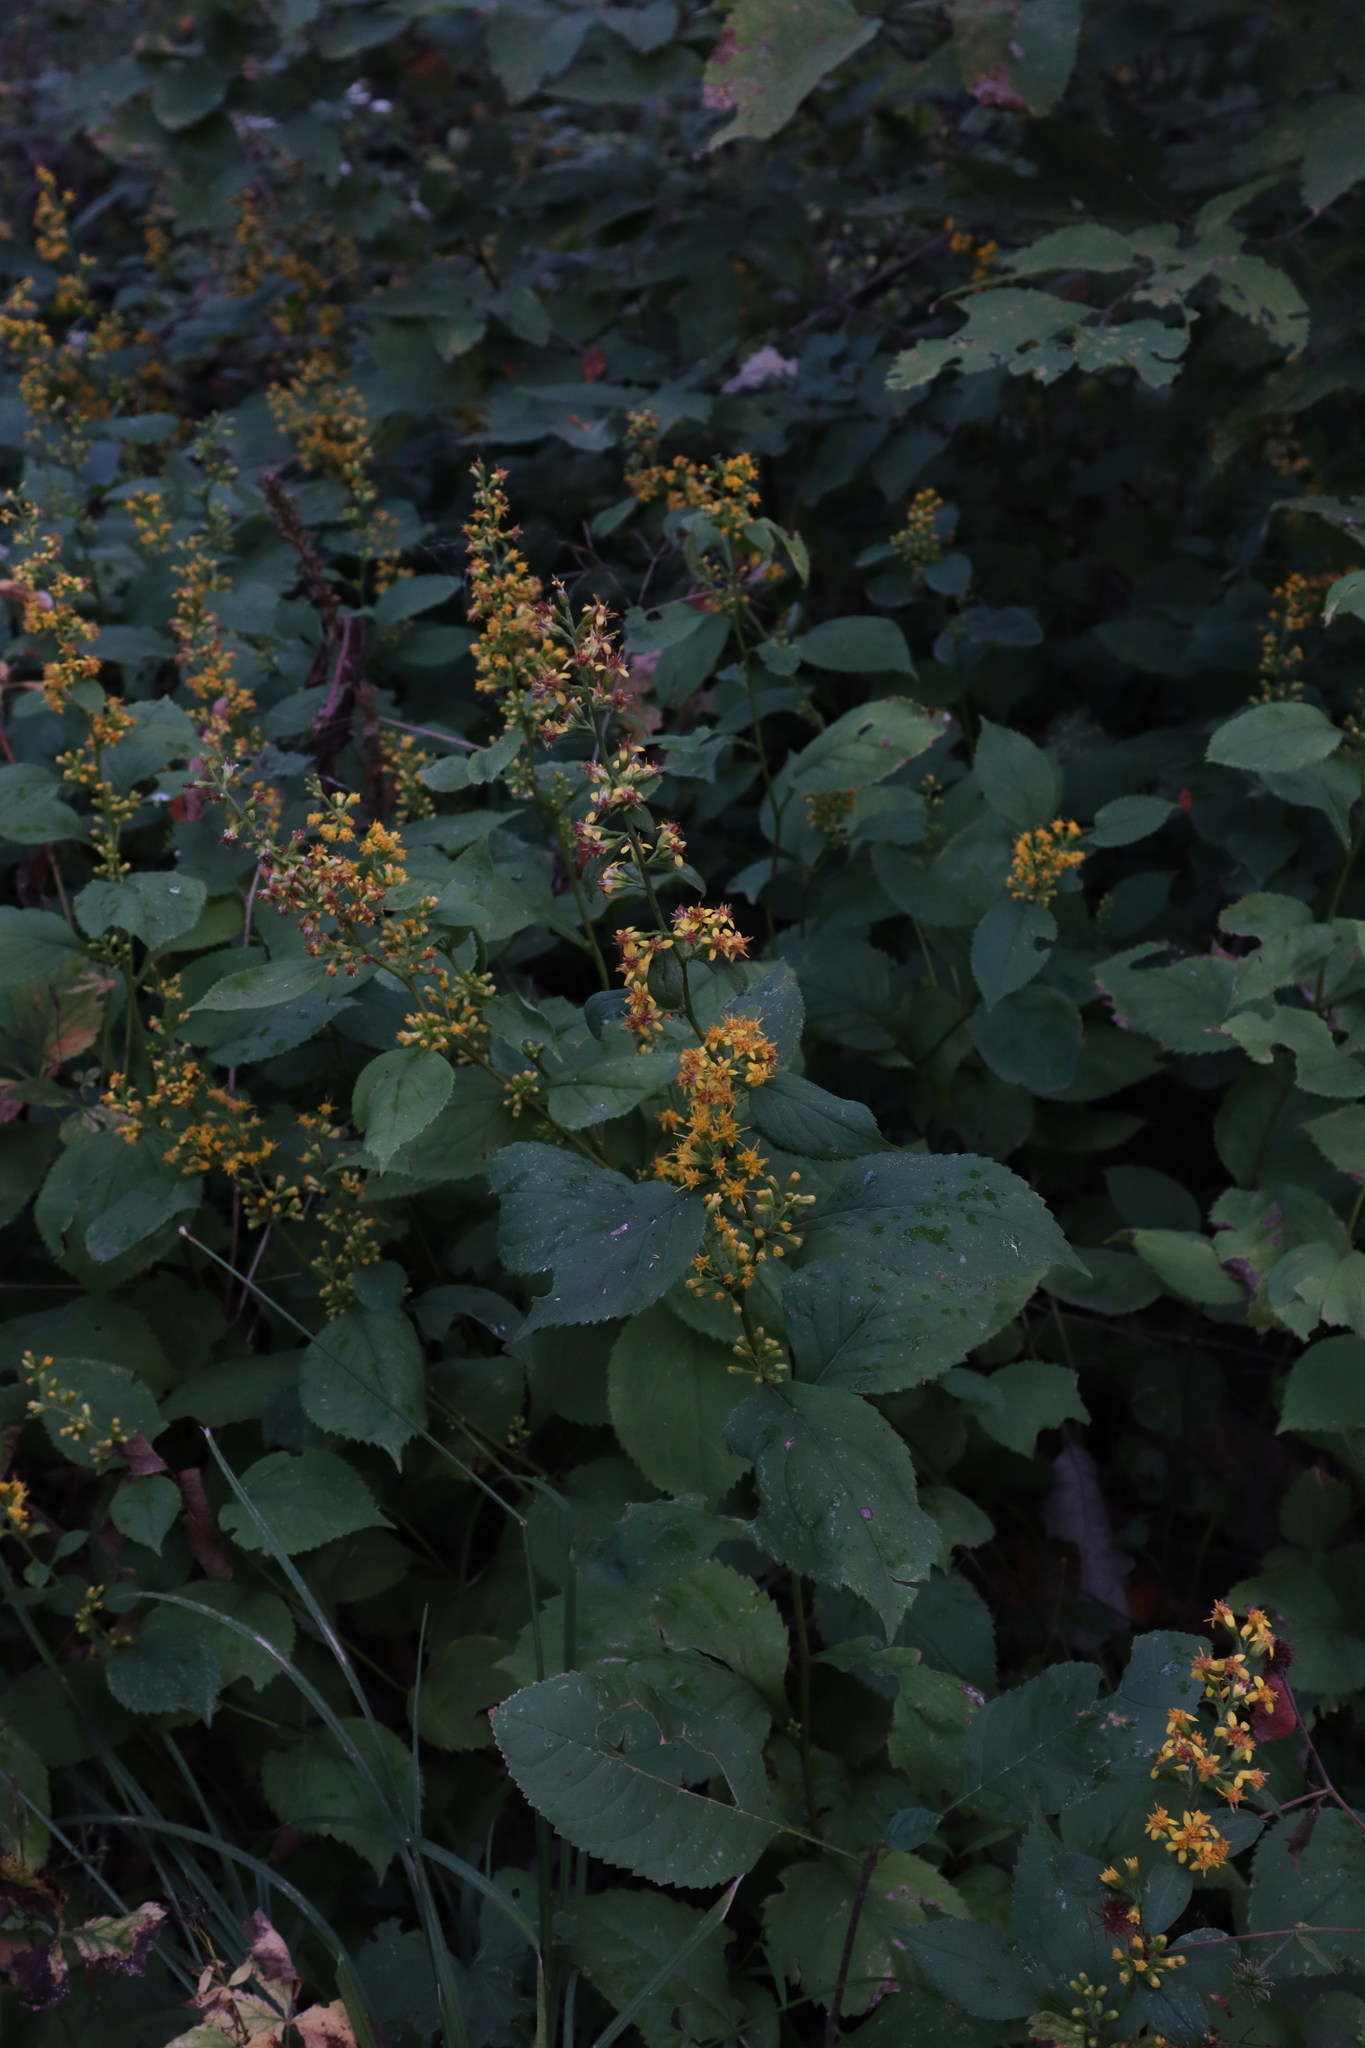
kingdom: Plantae
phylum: Tracheophyta
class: Magnoliopsida
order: Asterales
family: Asteraceae
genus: Solidago
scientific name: Solidago flexicaulis
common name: Zig-zag goldenrod
